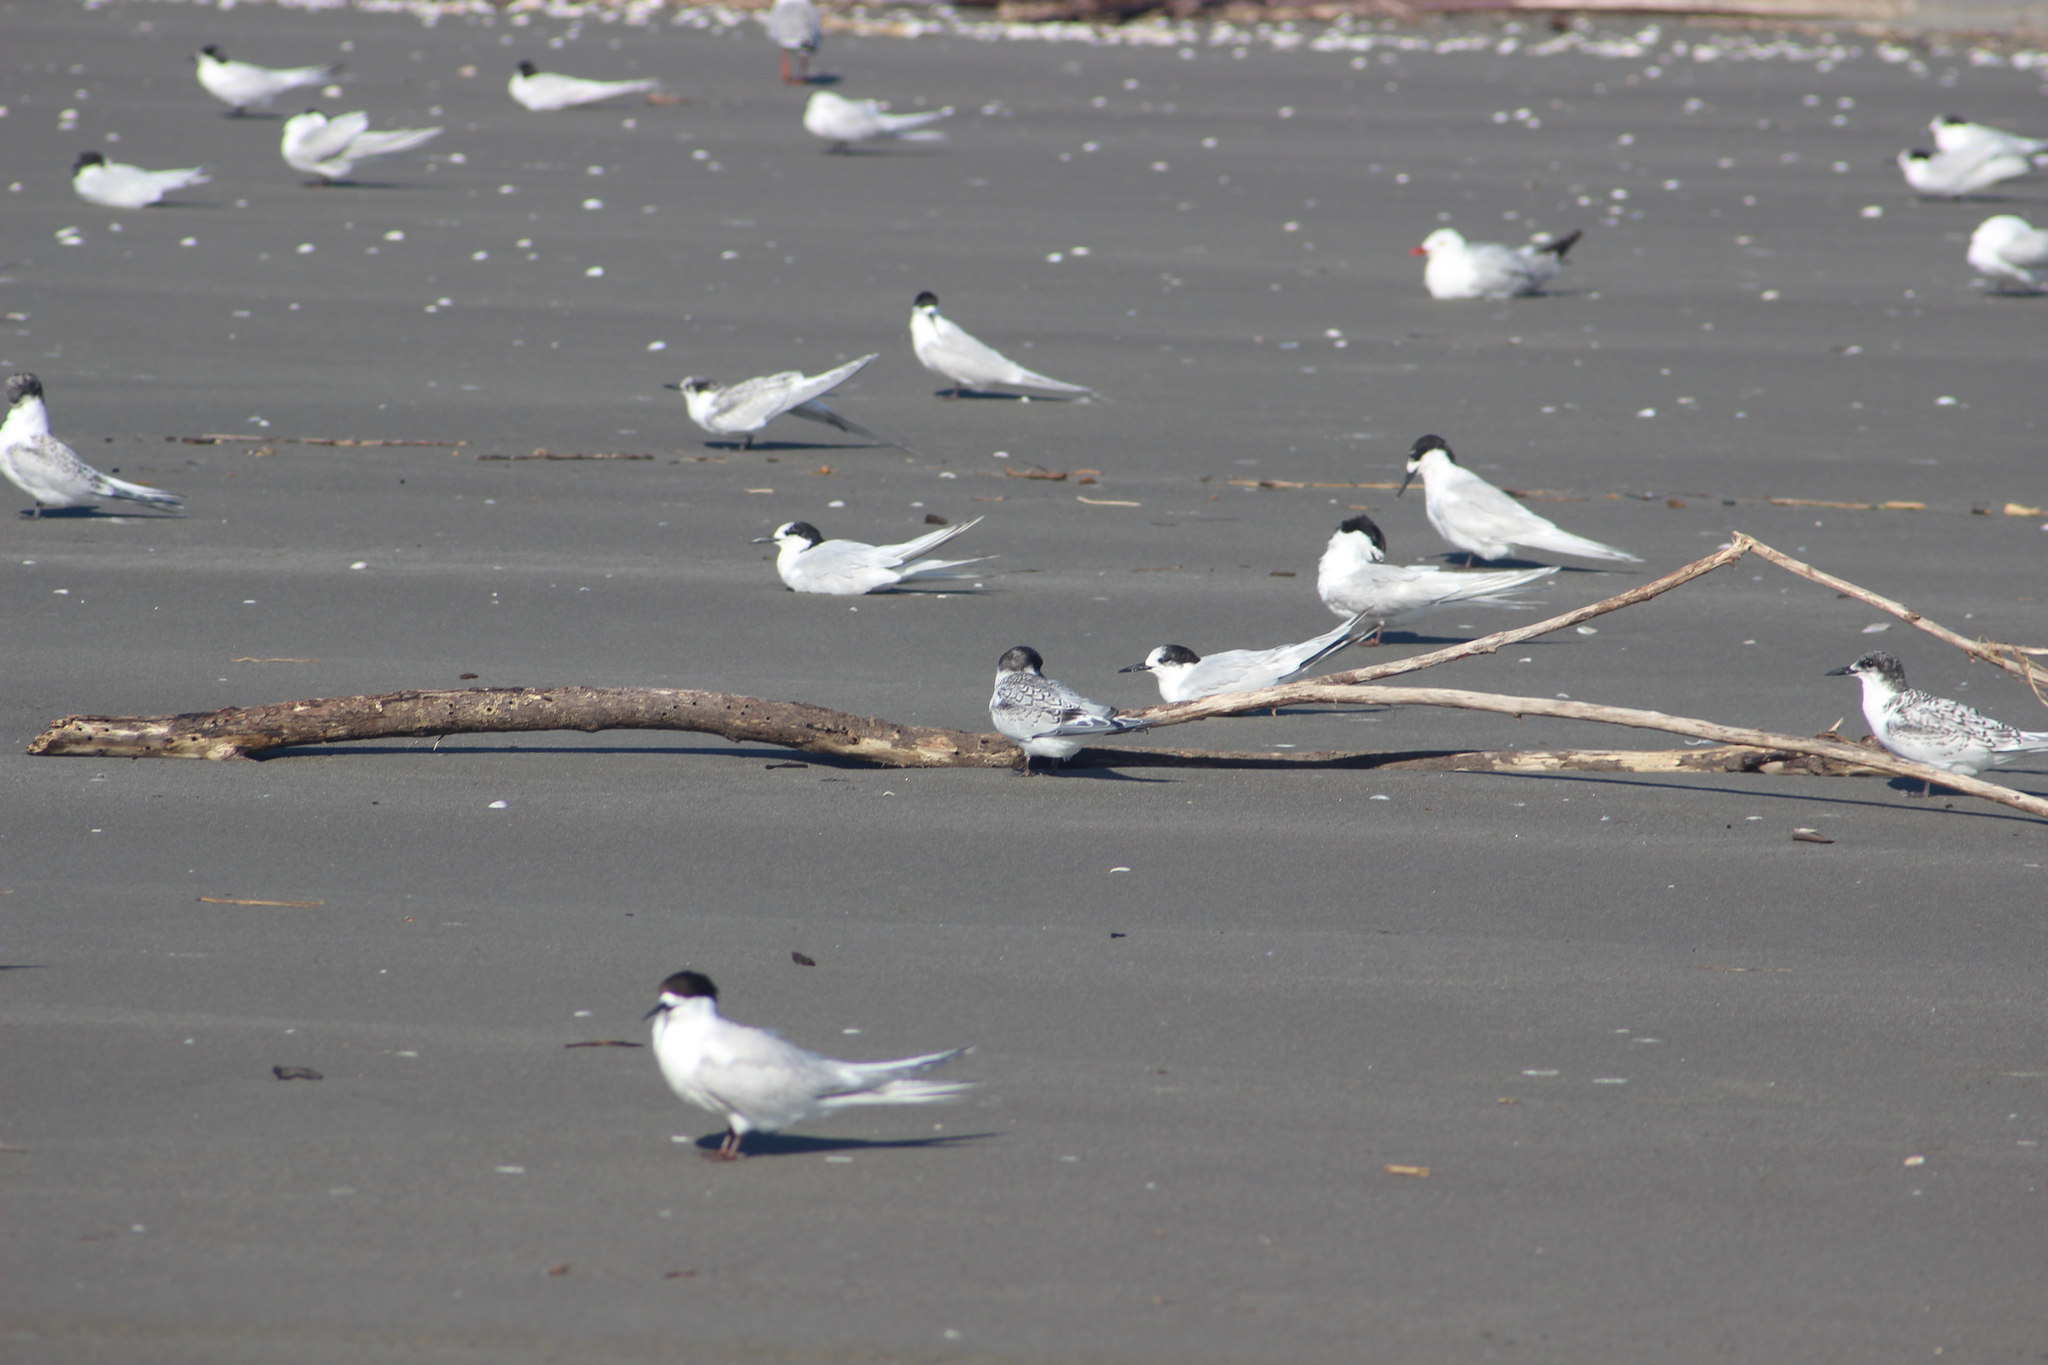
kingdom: Animalia
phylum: Chordata
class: Aves
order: Charadriiformes
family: Laridae
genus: Sterna
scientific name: Sterna striata
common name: White-fronted tern
